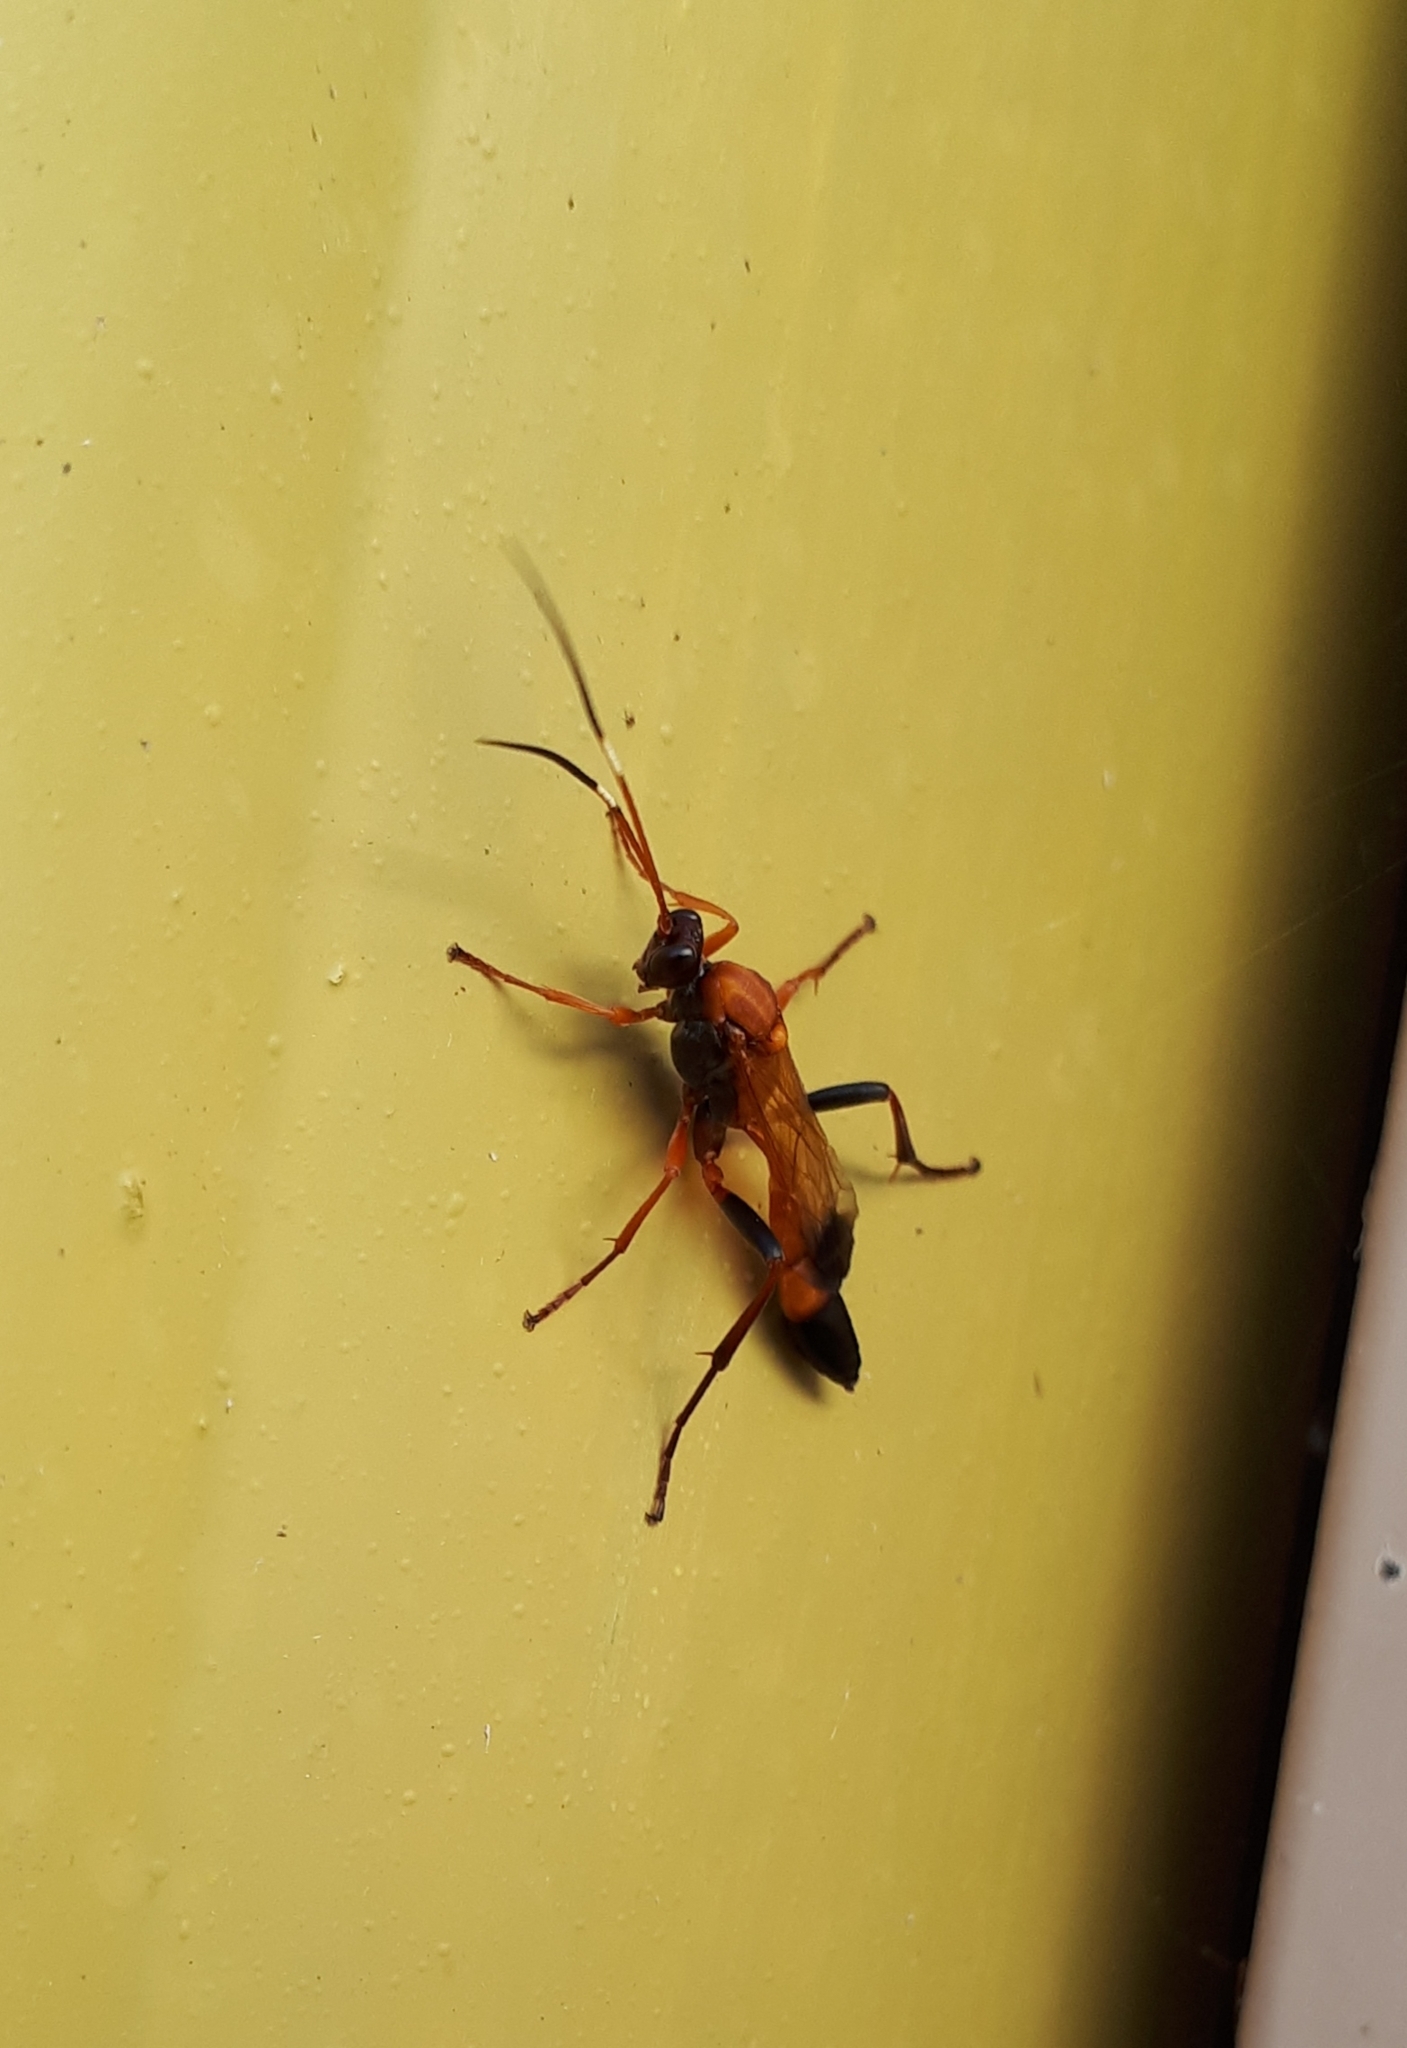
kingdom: Animalia
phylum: Arthropoda
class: Insecta
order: Hymenoptera
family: Ichneumonidae
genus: Ctenochares
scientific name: Ctenochares bicolorus
